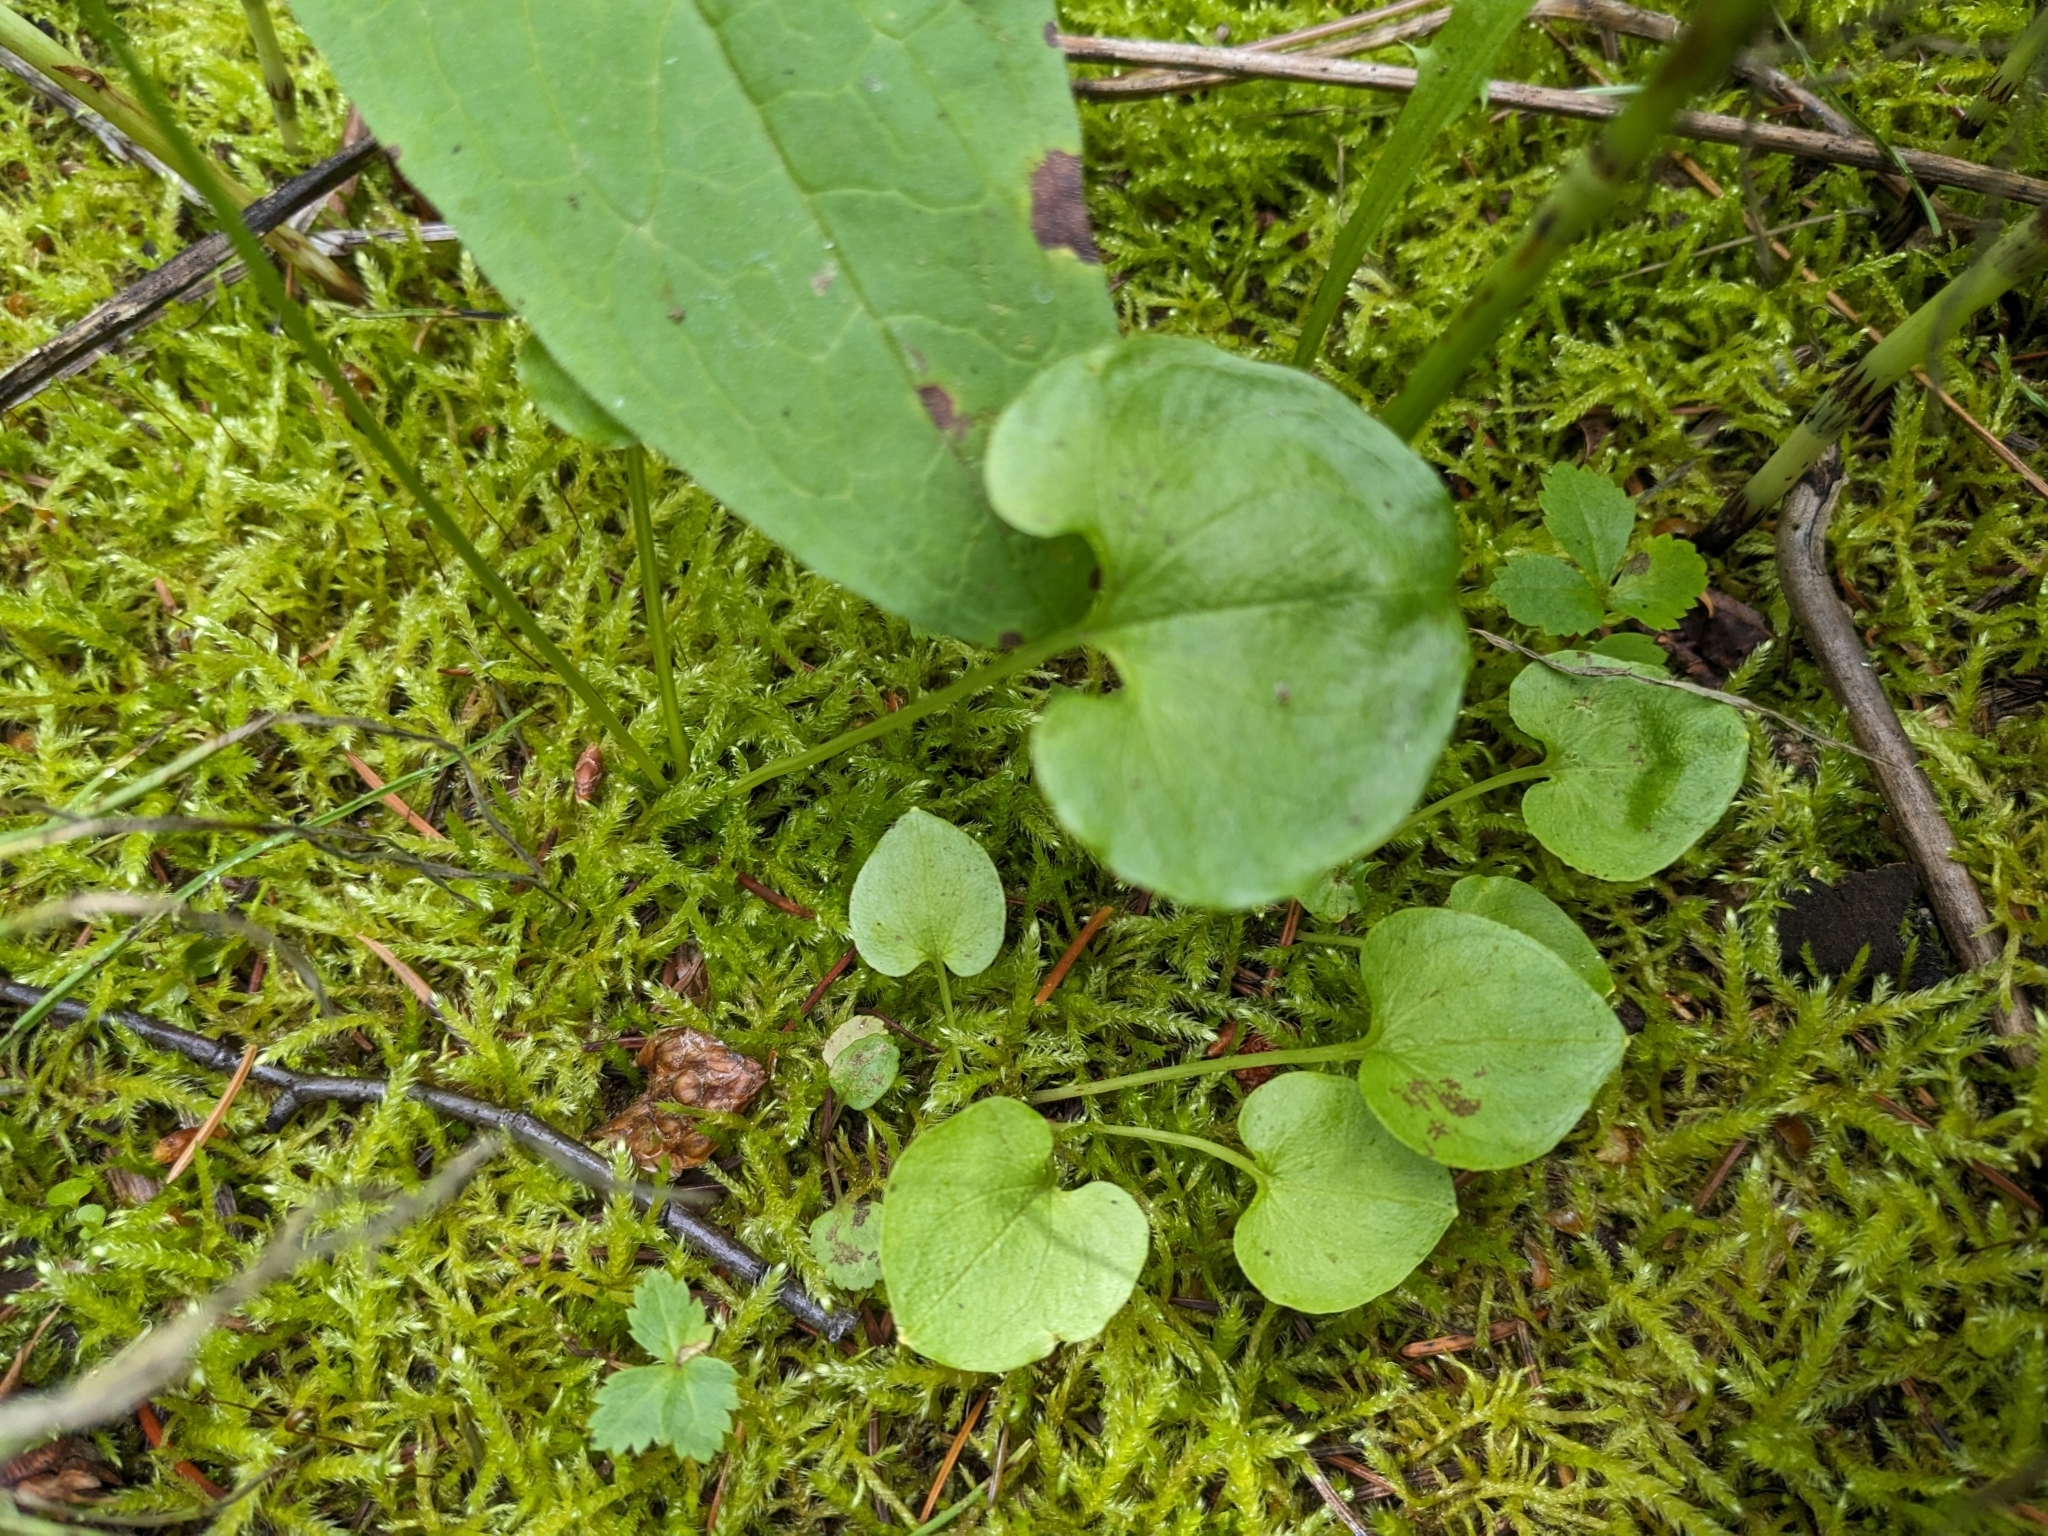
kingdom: Plantae
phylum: Tracheophyta
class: Magnoliopsida
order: Celastrales
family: Parnassiaceae
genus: Parnassia
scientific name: Parnassia fimbriata
